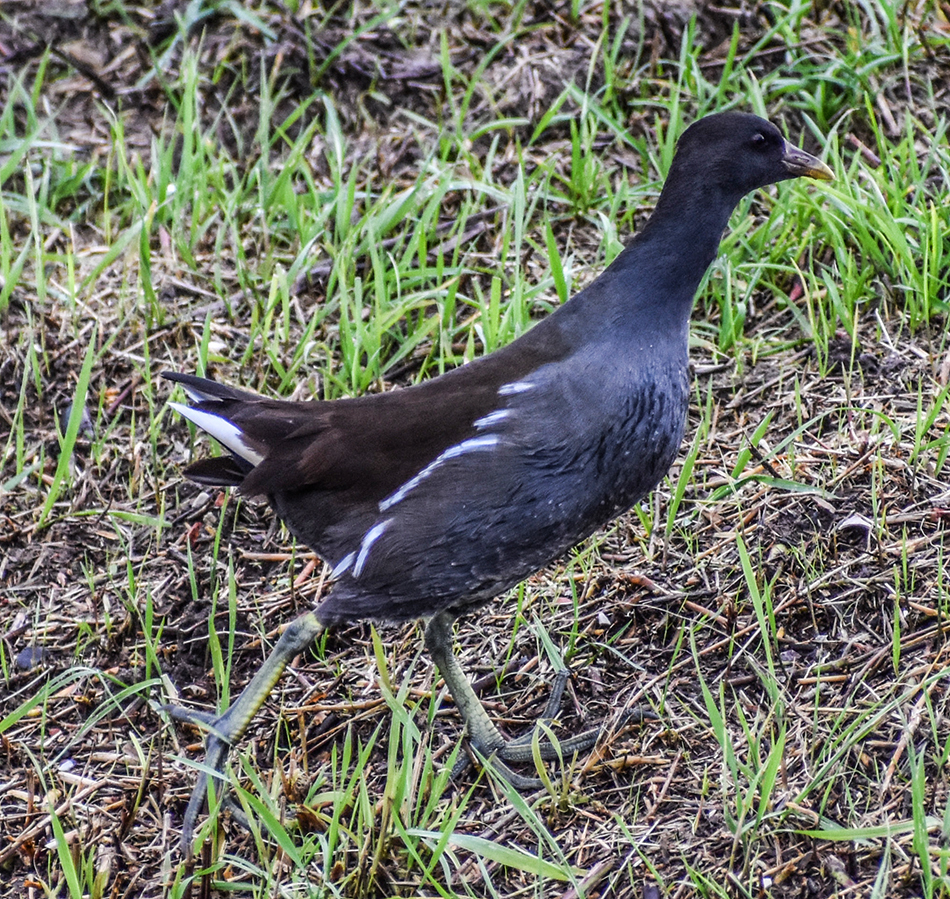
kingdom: Animalia
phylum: Chordata
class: Aves
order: Gruiformes
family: Rallidae
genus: Gallinula
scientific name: Gallinula chloropus
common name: Common moorhen
